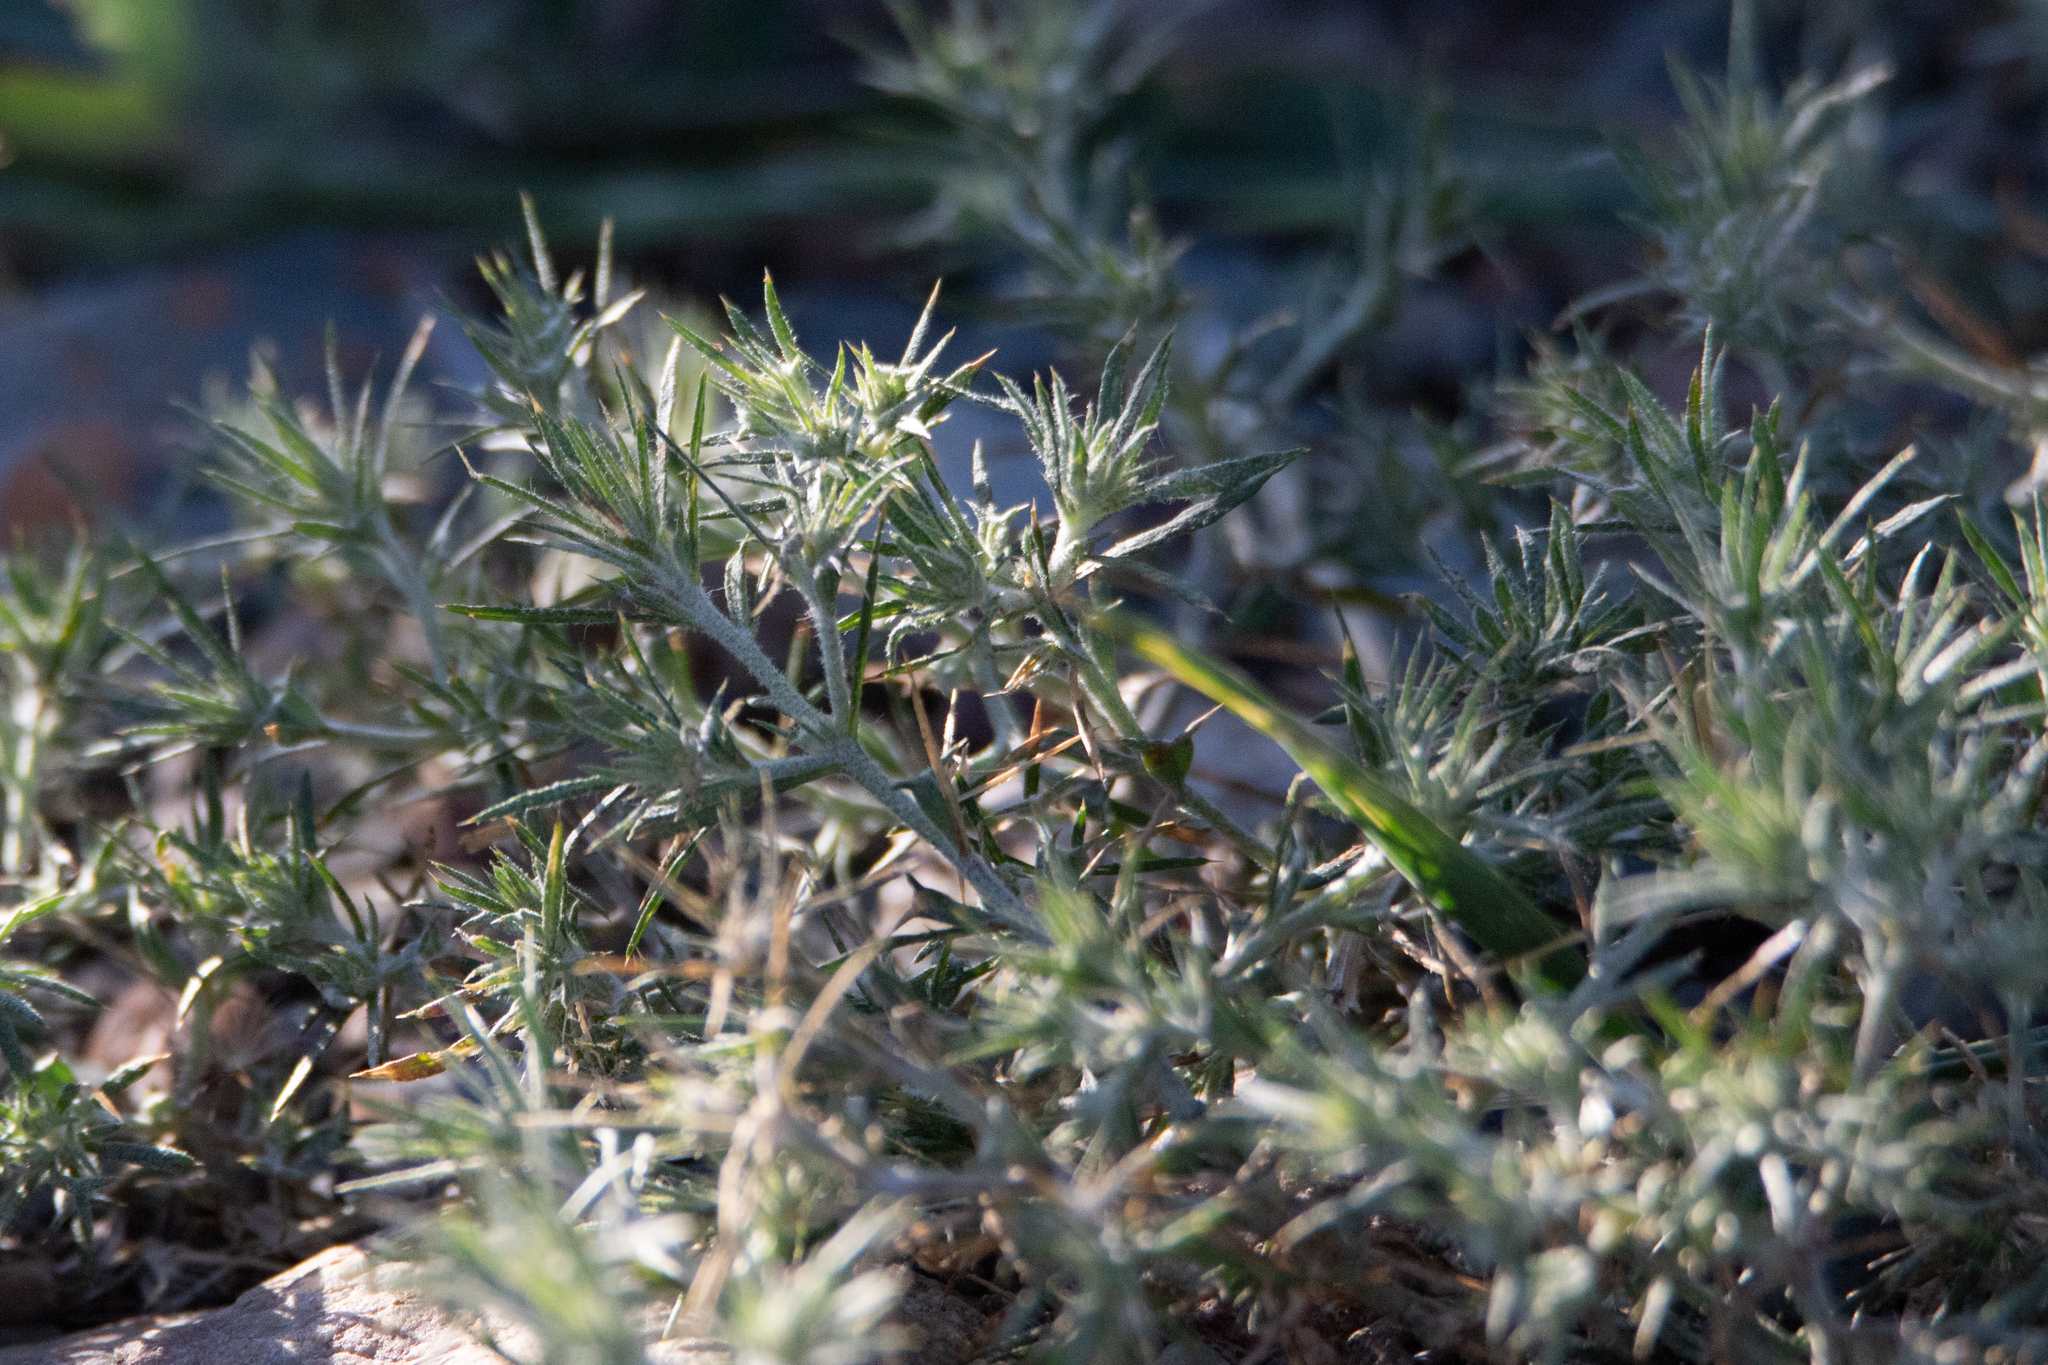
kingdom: Plantae
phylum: Tracheophyta
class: Magnoliopsida
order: Caryophyllales
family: Amaranthaceae
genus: Ceratocarpus
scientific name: Ceratocarpus arenarius
